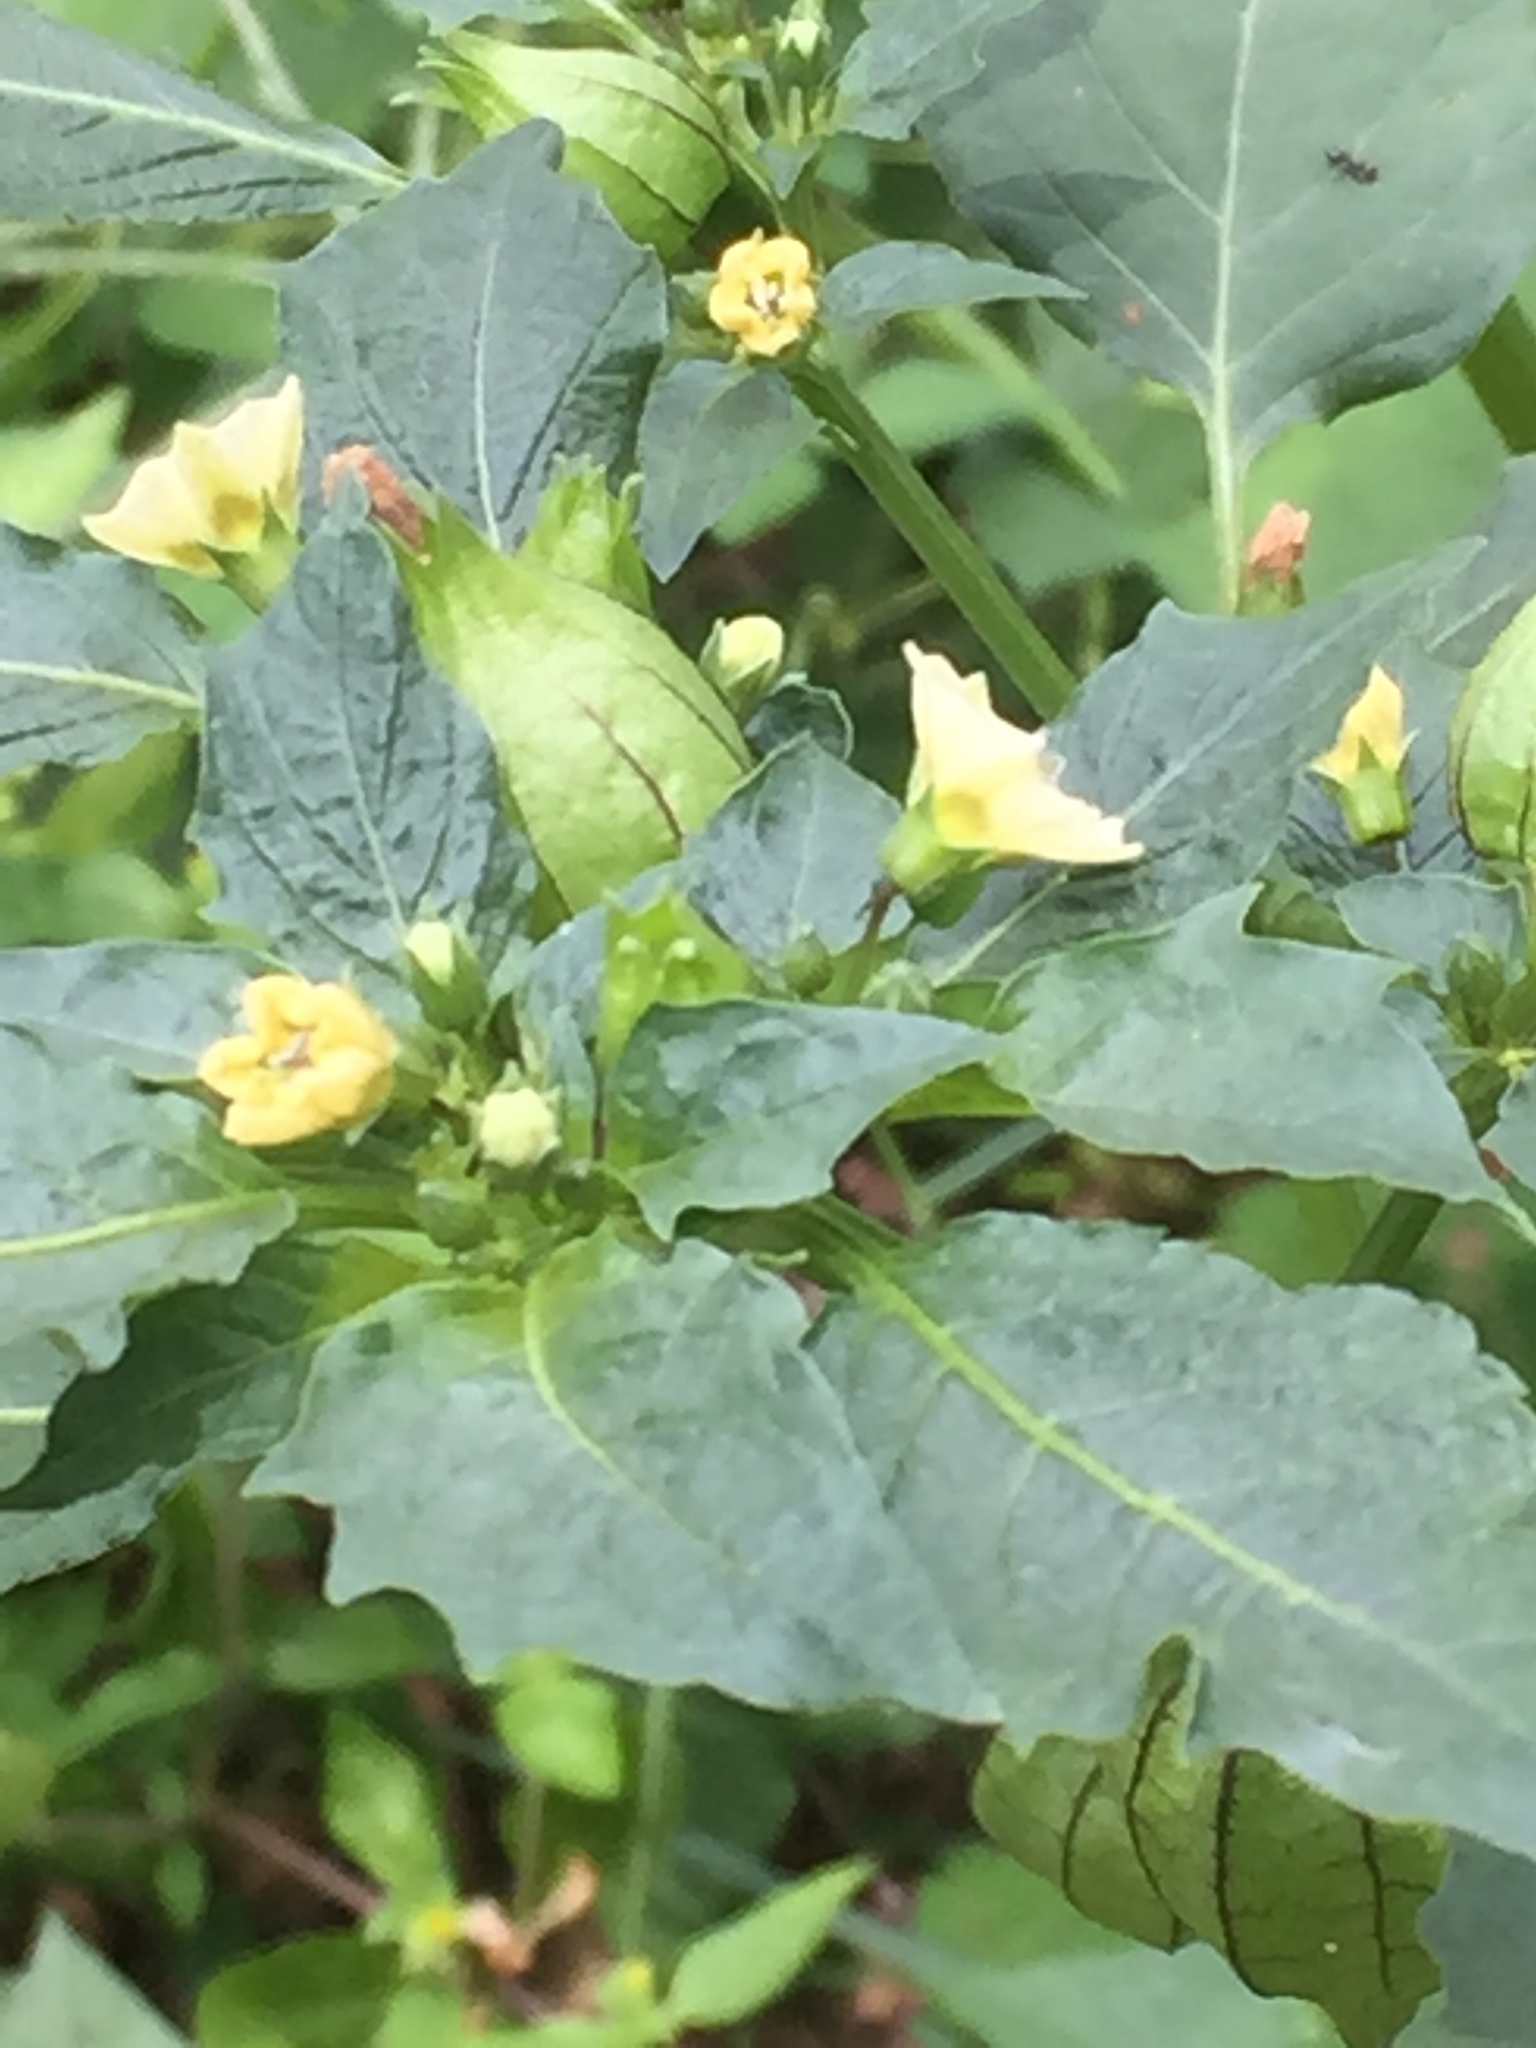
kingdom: Plantae
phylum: Tracheophyta
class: Magnoliopsida
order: Solanales
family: Solanaceae
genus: Physalis
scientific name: Physalis angulata
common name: Angular winter-cherry
